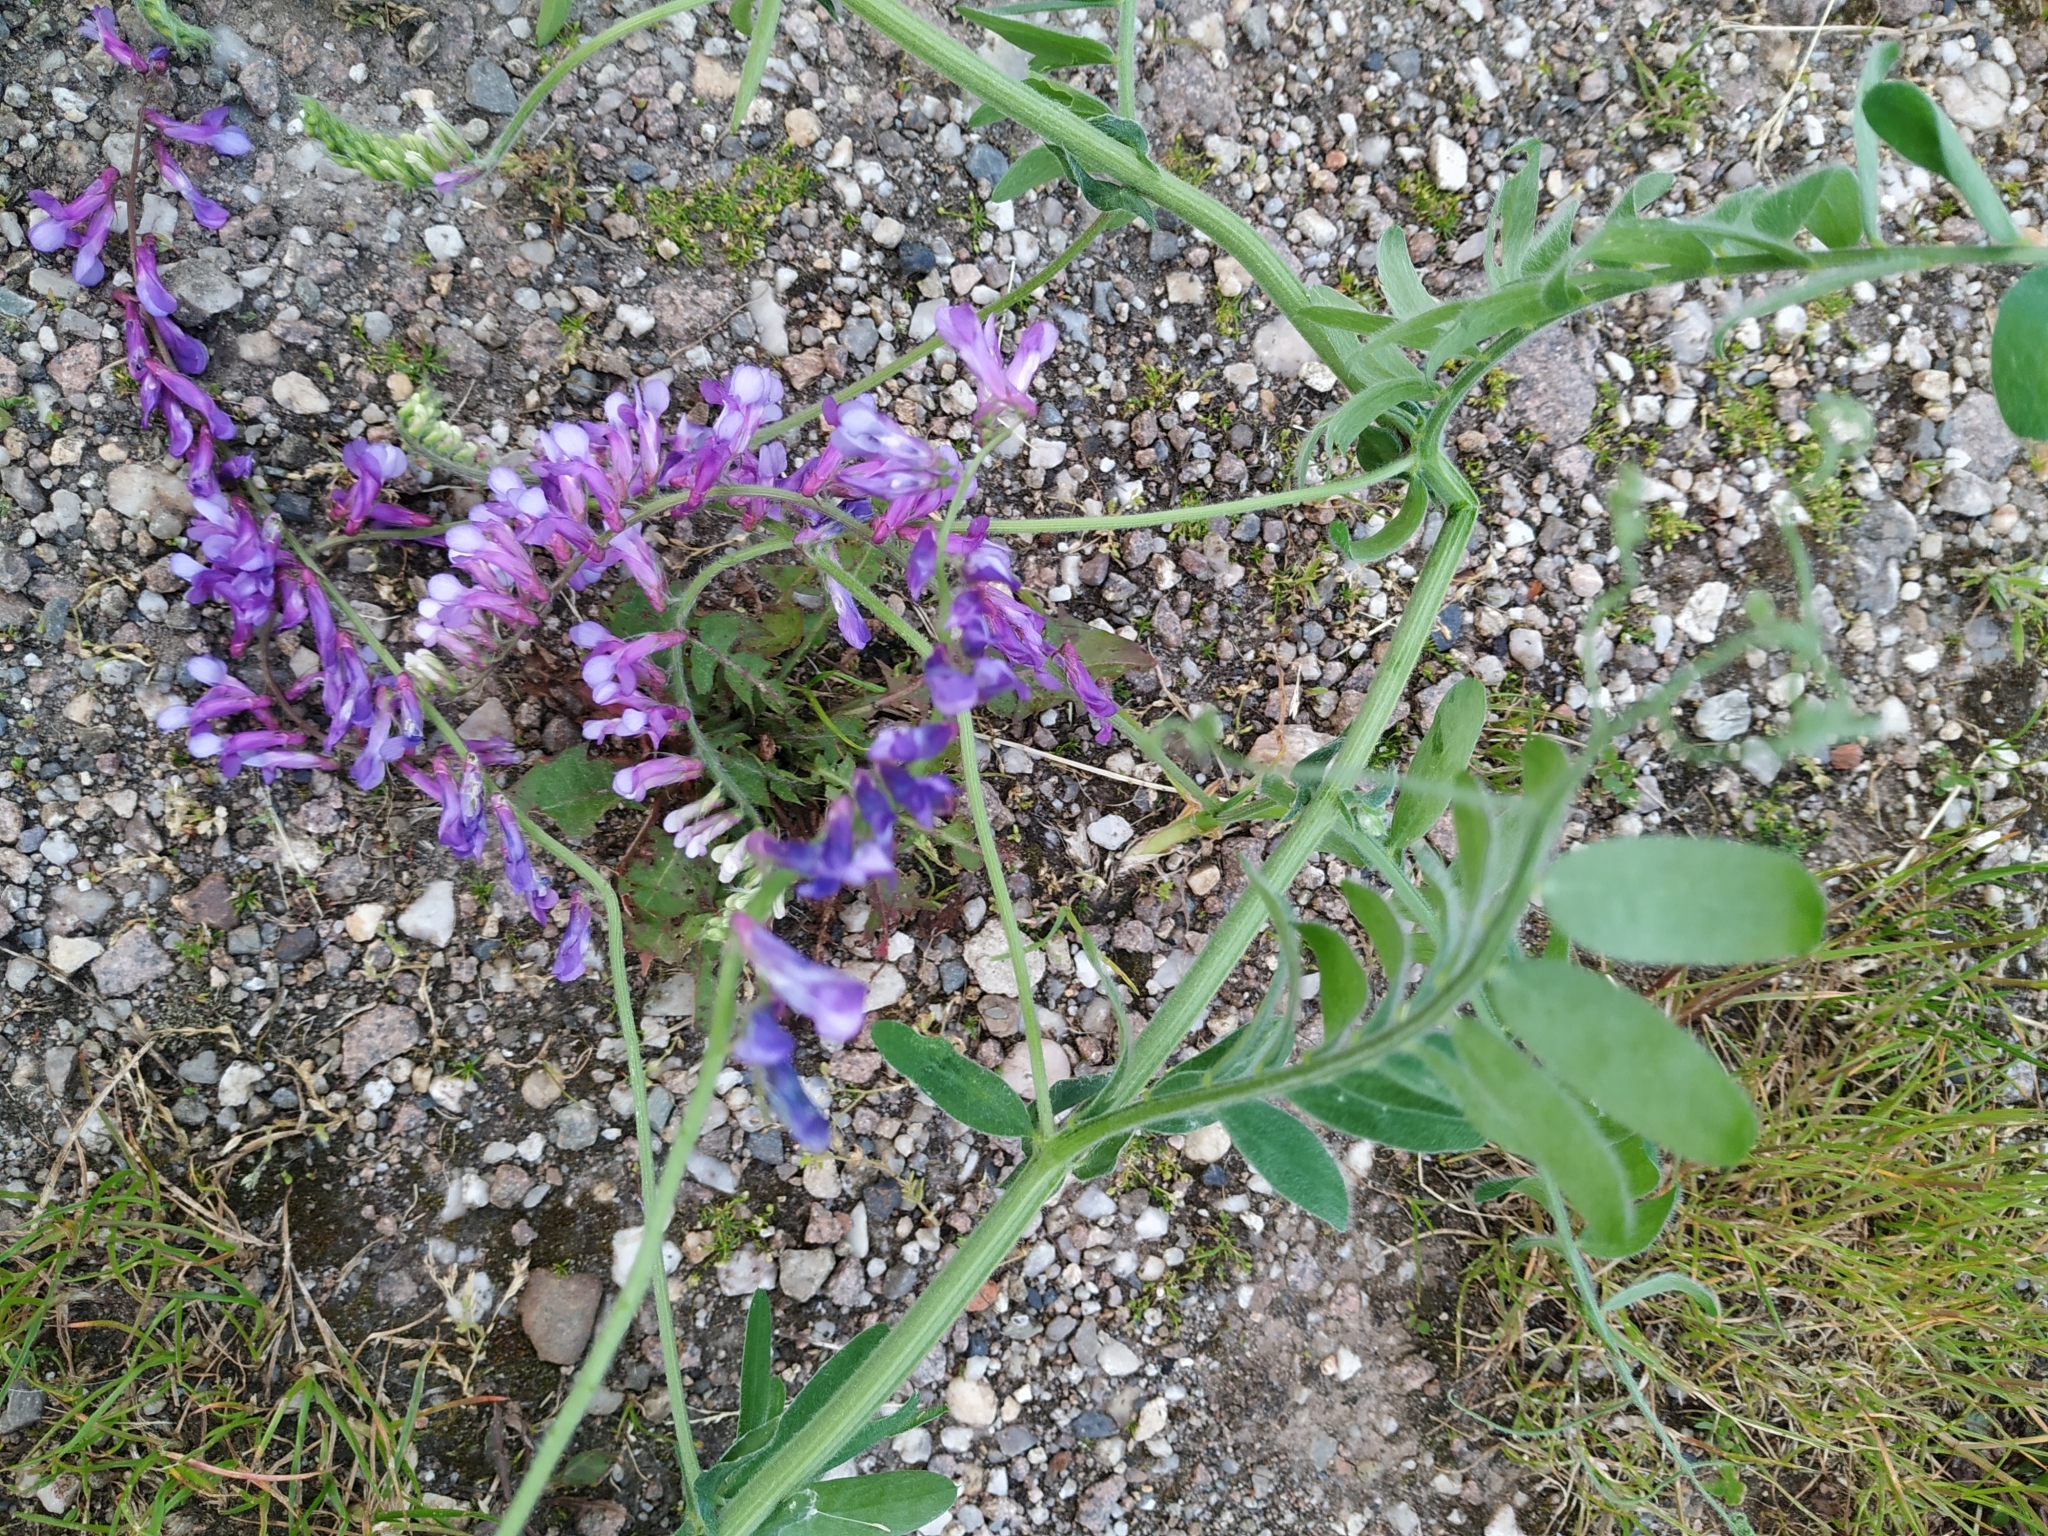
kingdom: Plantae
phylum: Tracheophyta
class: Magnoliopsida
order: Fabales
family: Fabaceae
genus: Vicia
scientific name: Vicia villosa
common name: Fodder vetch
